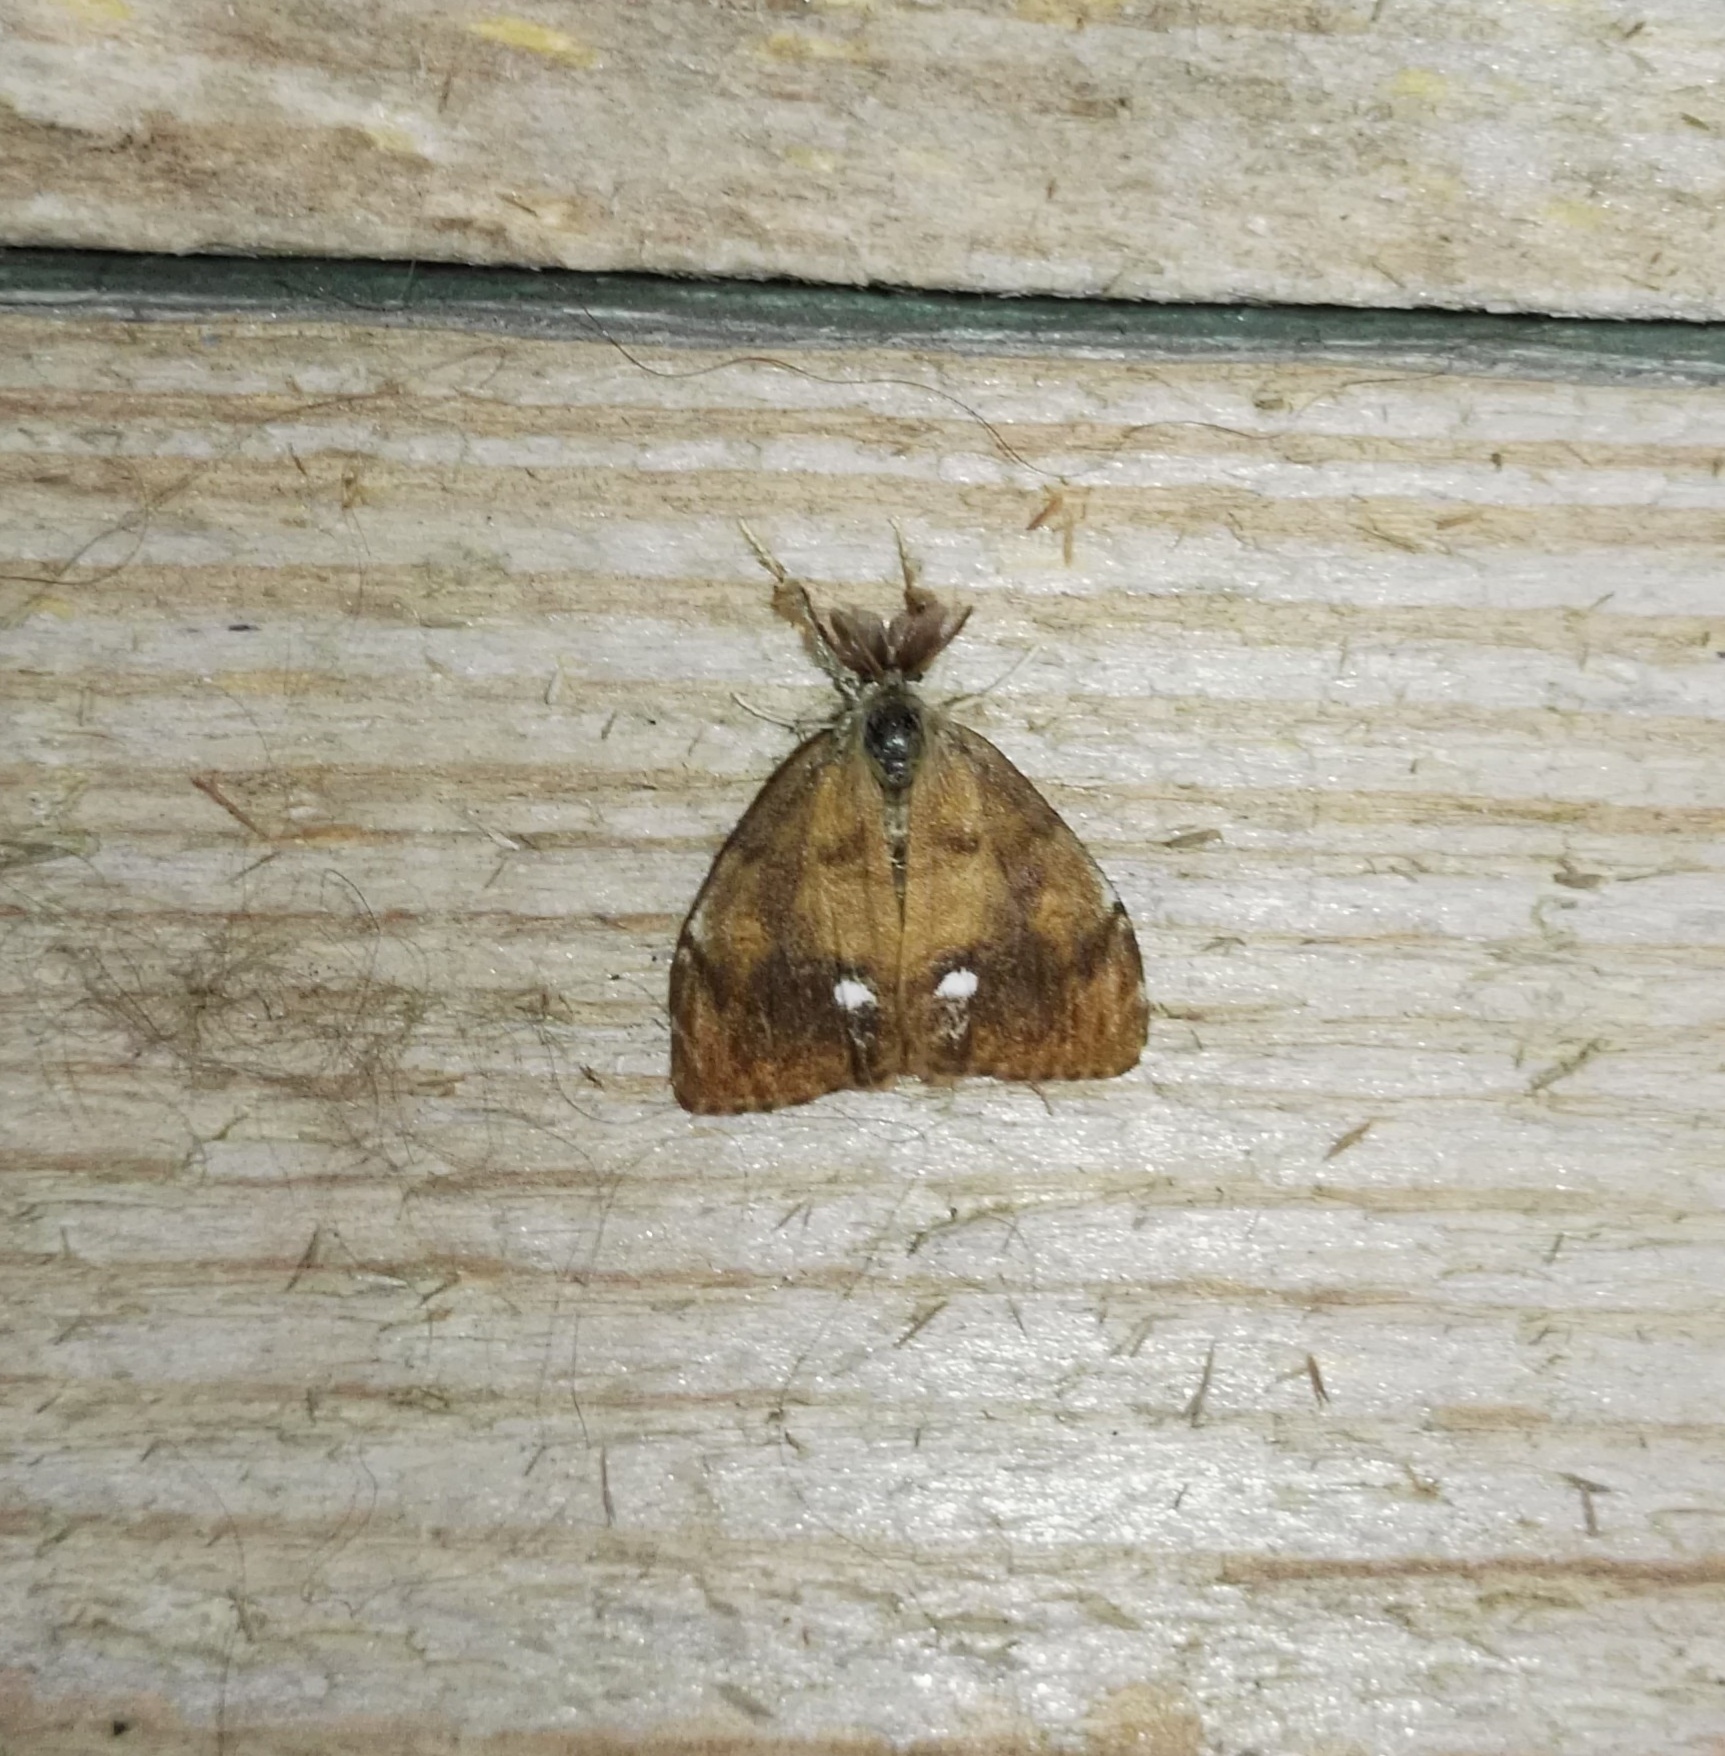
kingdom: Animalia
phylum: Arthropoda
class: Insecta
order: Lepidoptera
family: Erebidae
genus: Orgyia
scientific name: Orgyia antiqua
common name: Vapourer
